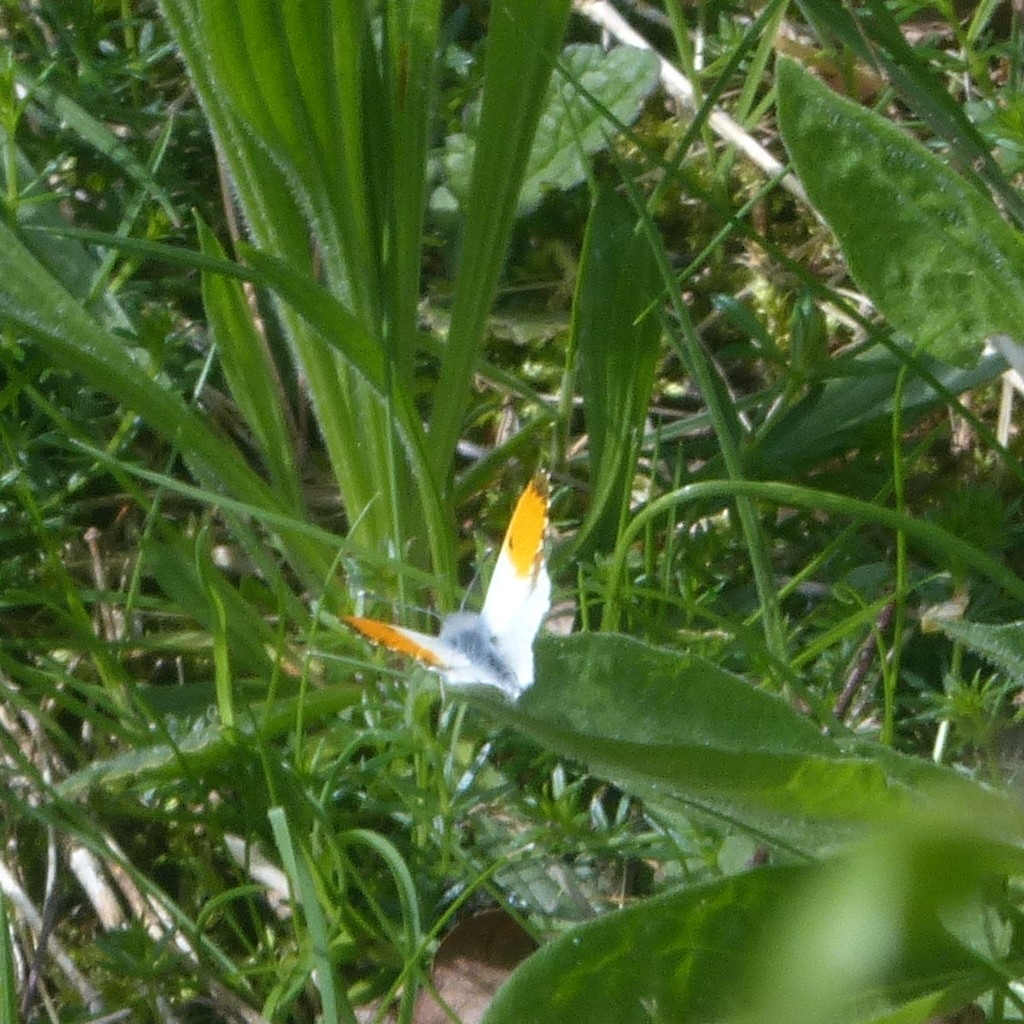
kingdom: Animalia
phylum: Arthropoda
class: Insecta
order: Lepidoptera
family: Pieridae
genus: Anthocharis
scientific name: Anthocharis cardamines
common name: Orange-tip
